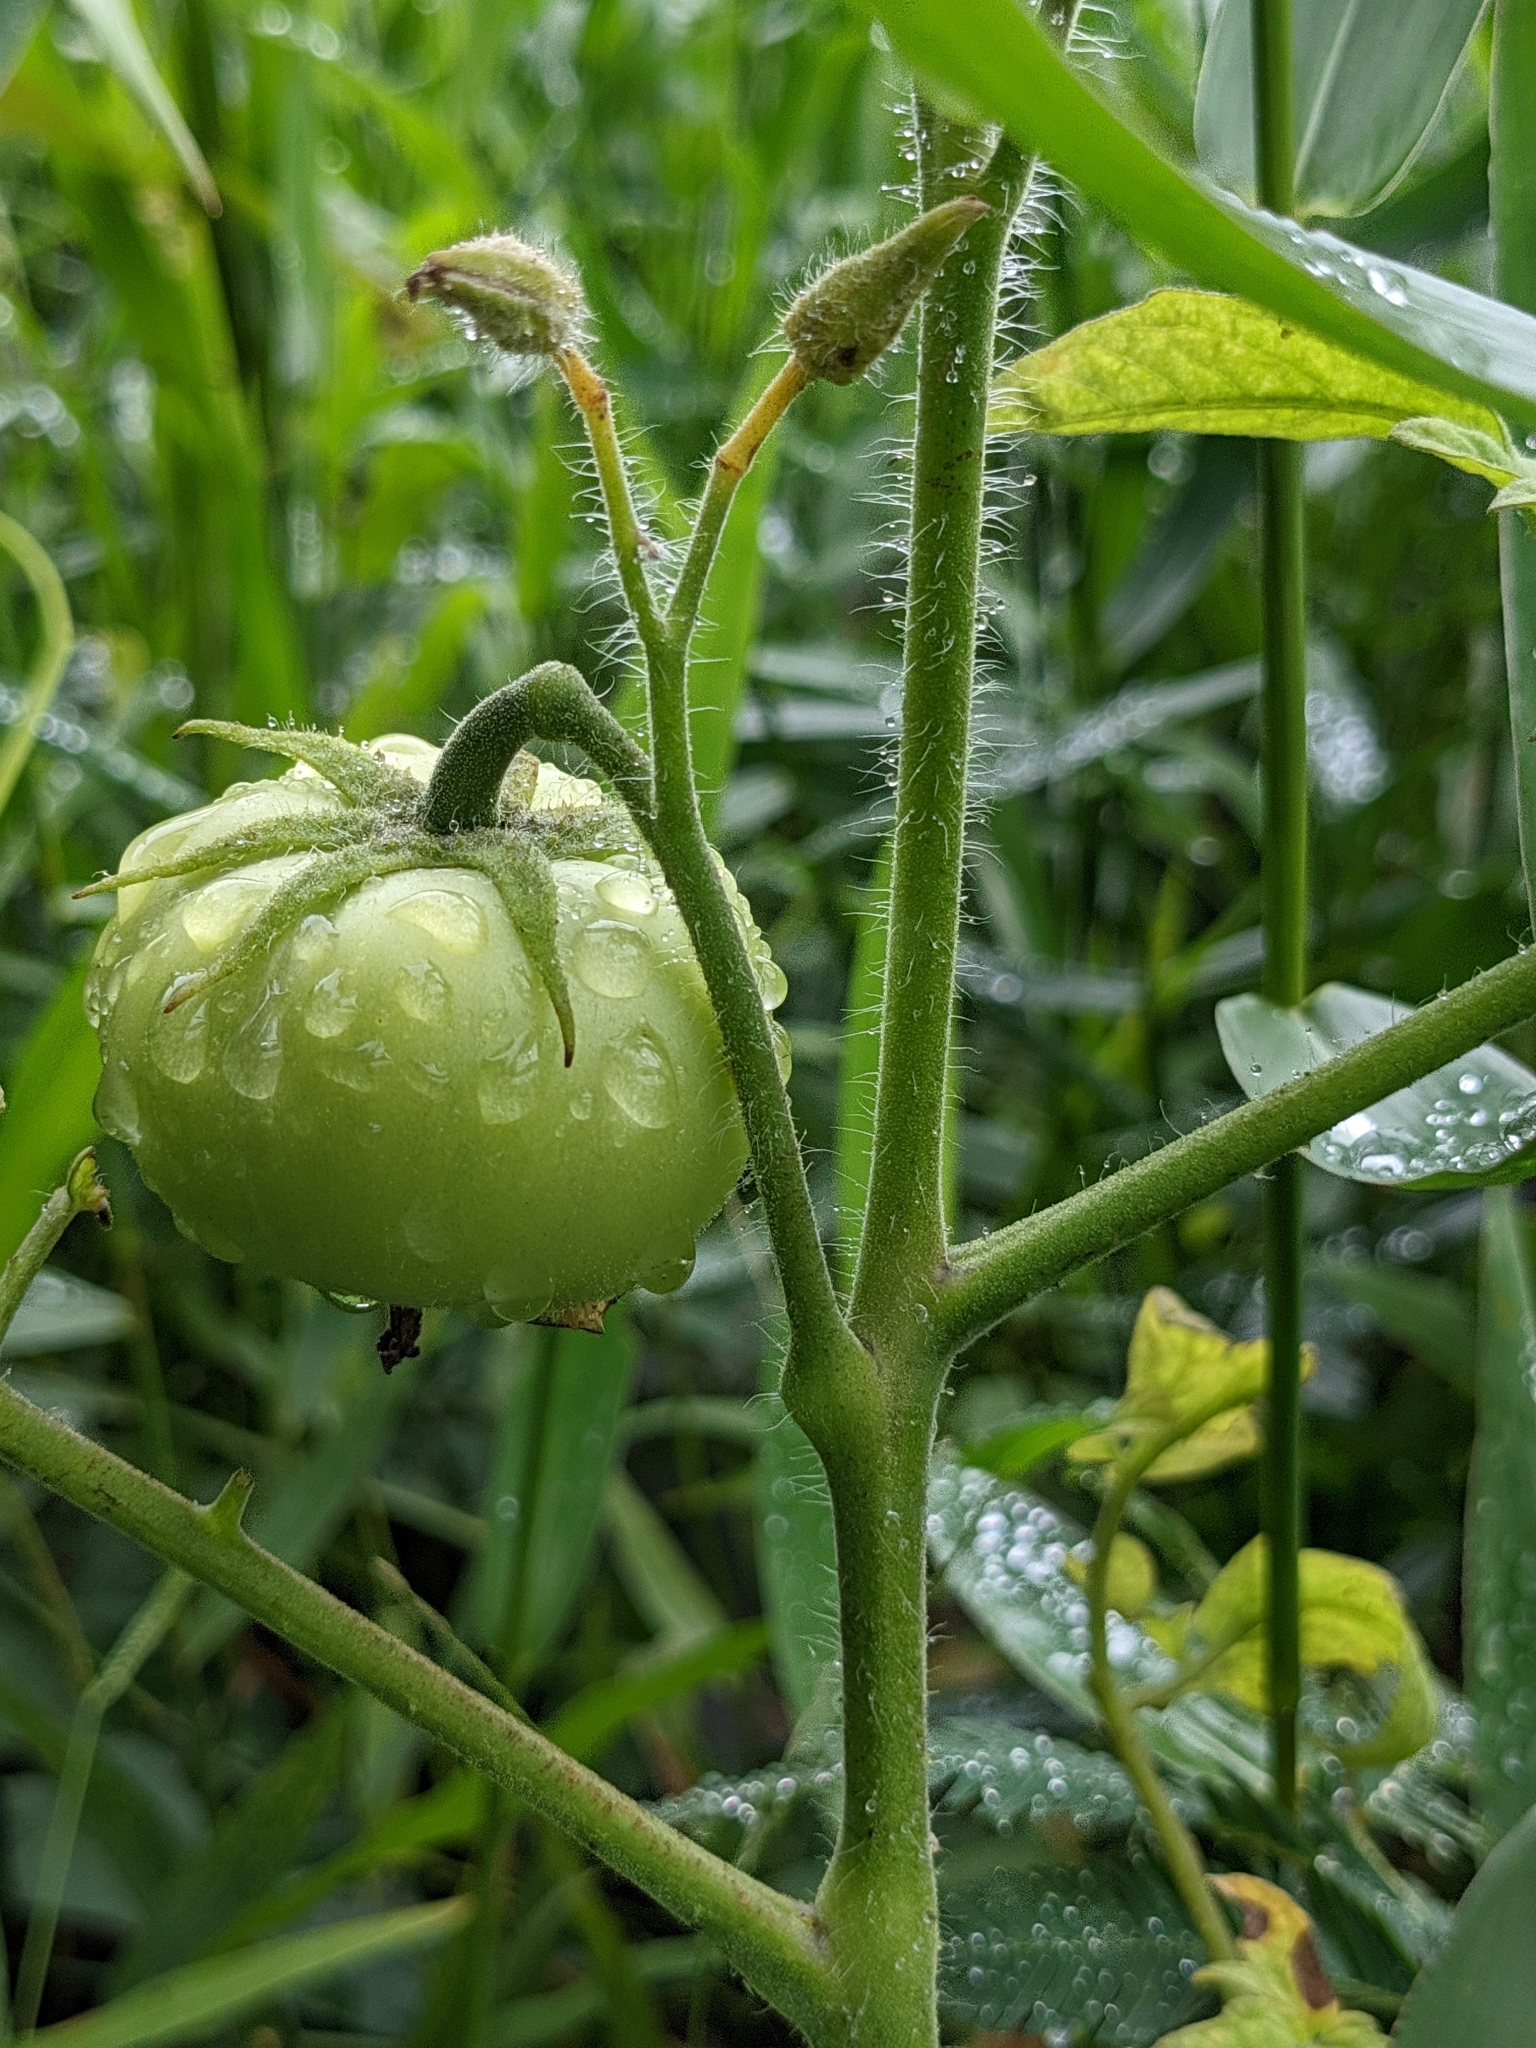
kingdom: Plantae
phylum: Tracheophyta
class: Magnoliopsida
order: Solanales
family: Solanaceae
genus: Solanum
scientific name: Solanum lycopersicum
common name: Garden tomato
